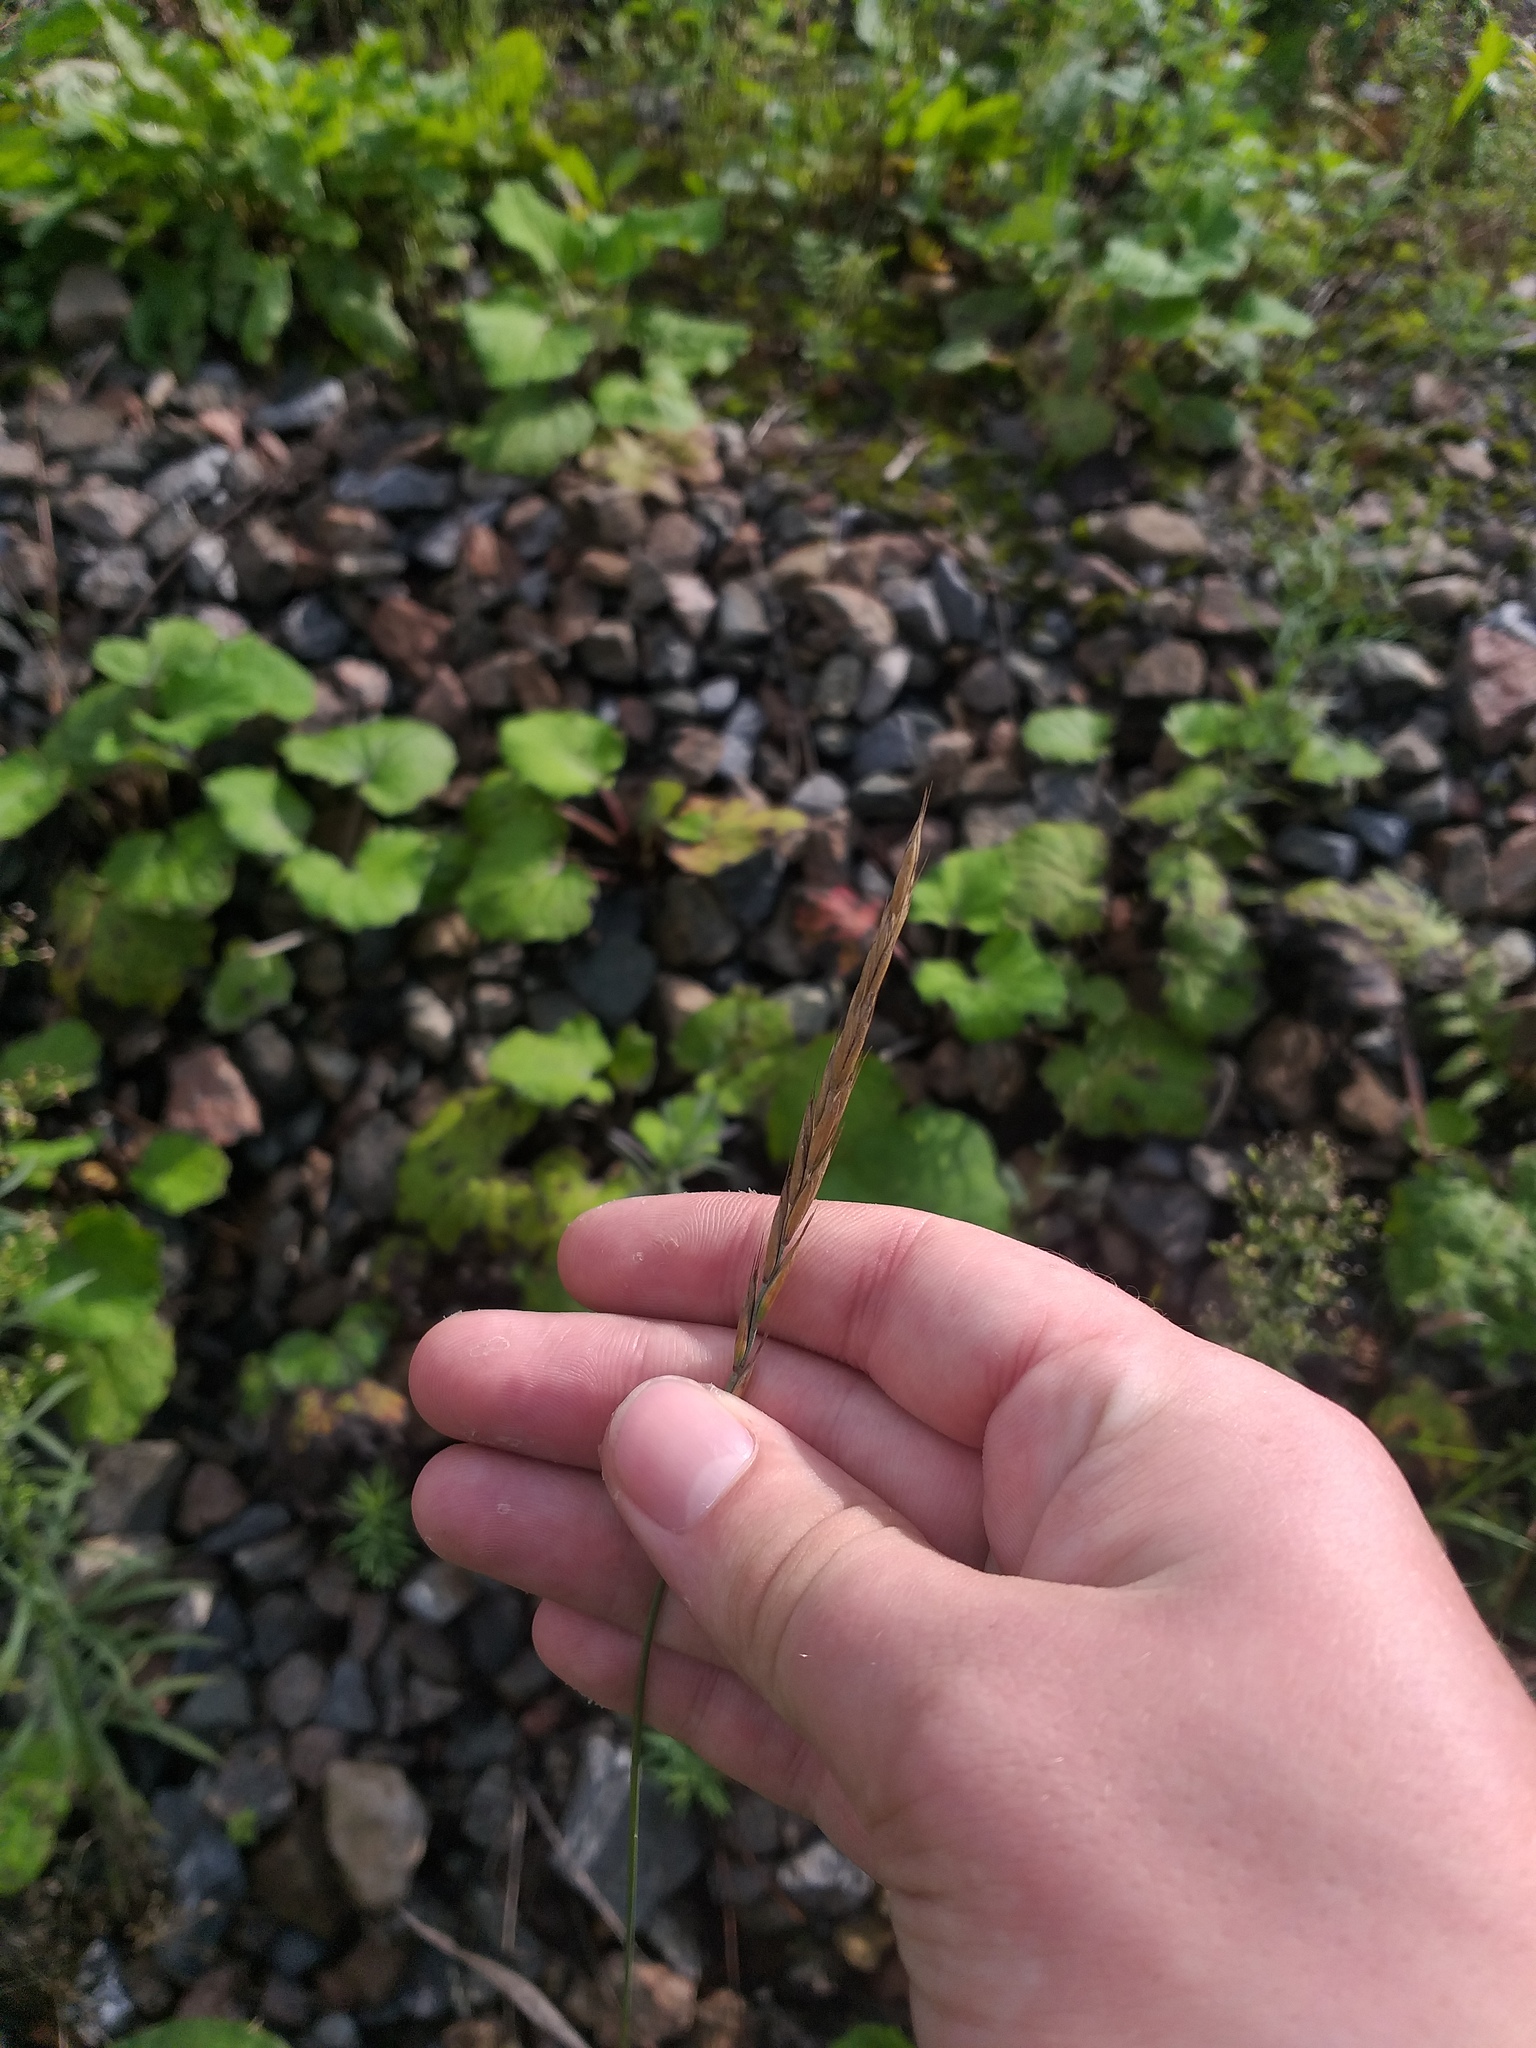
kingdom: Plantae
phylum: Tracheophyta
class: Liliopsida
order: Poales
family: Poaceae
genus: Elymus
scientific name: Elymus repens
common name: Quackgrass
